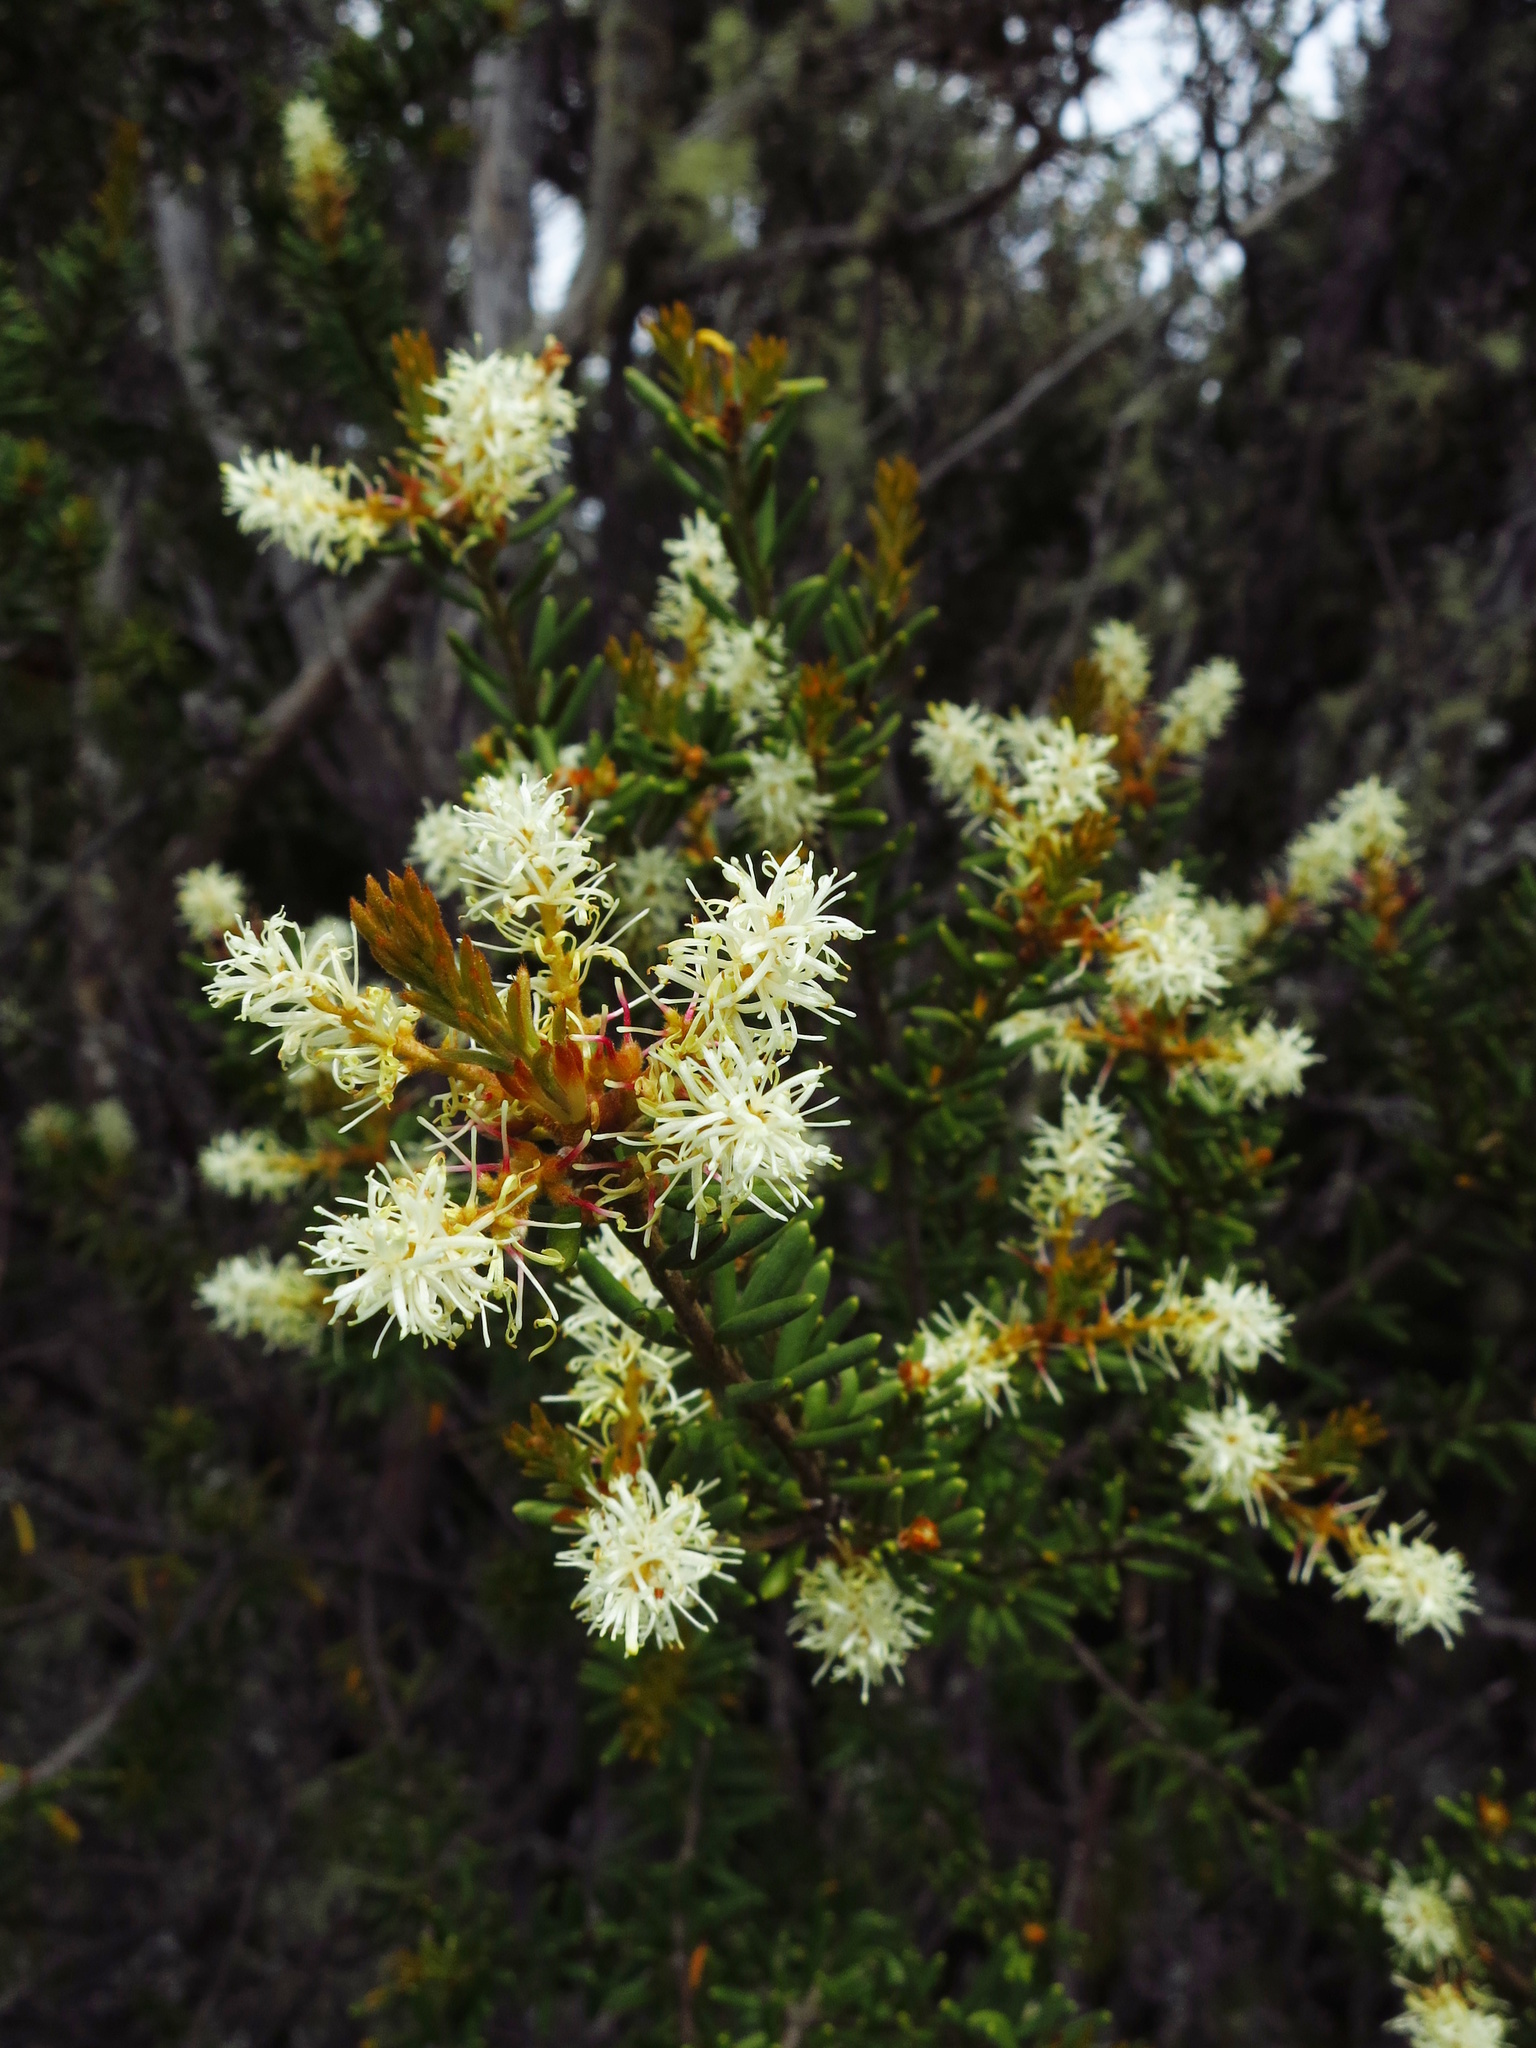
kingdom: Plantae
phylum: Tracheophyta
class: Magnoliopsida
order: Proteales
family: Proteaceae
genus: Orites
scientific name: Orites revolutus
